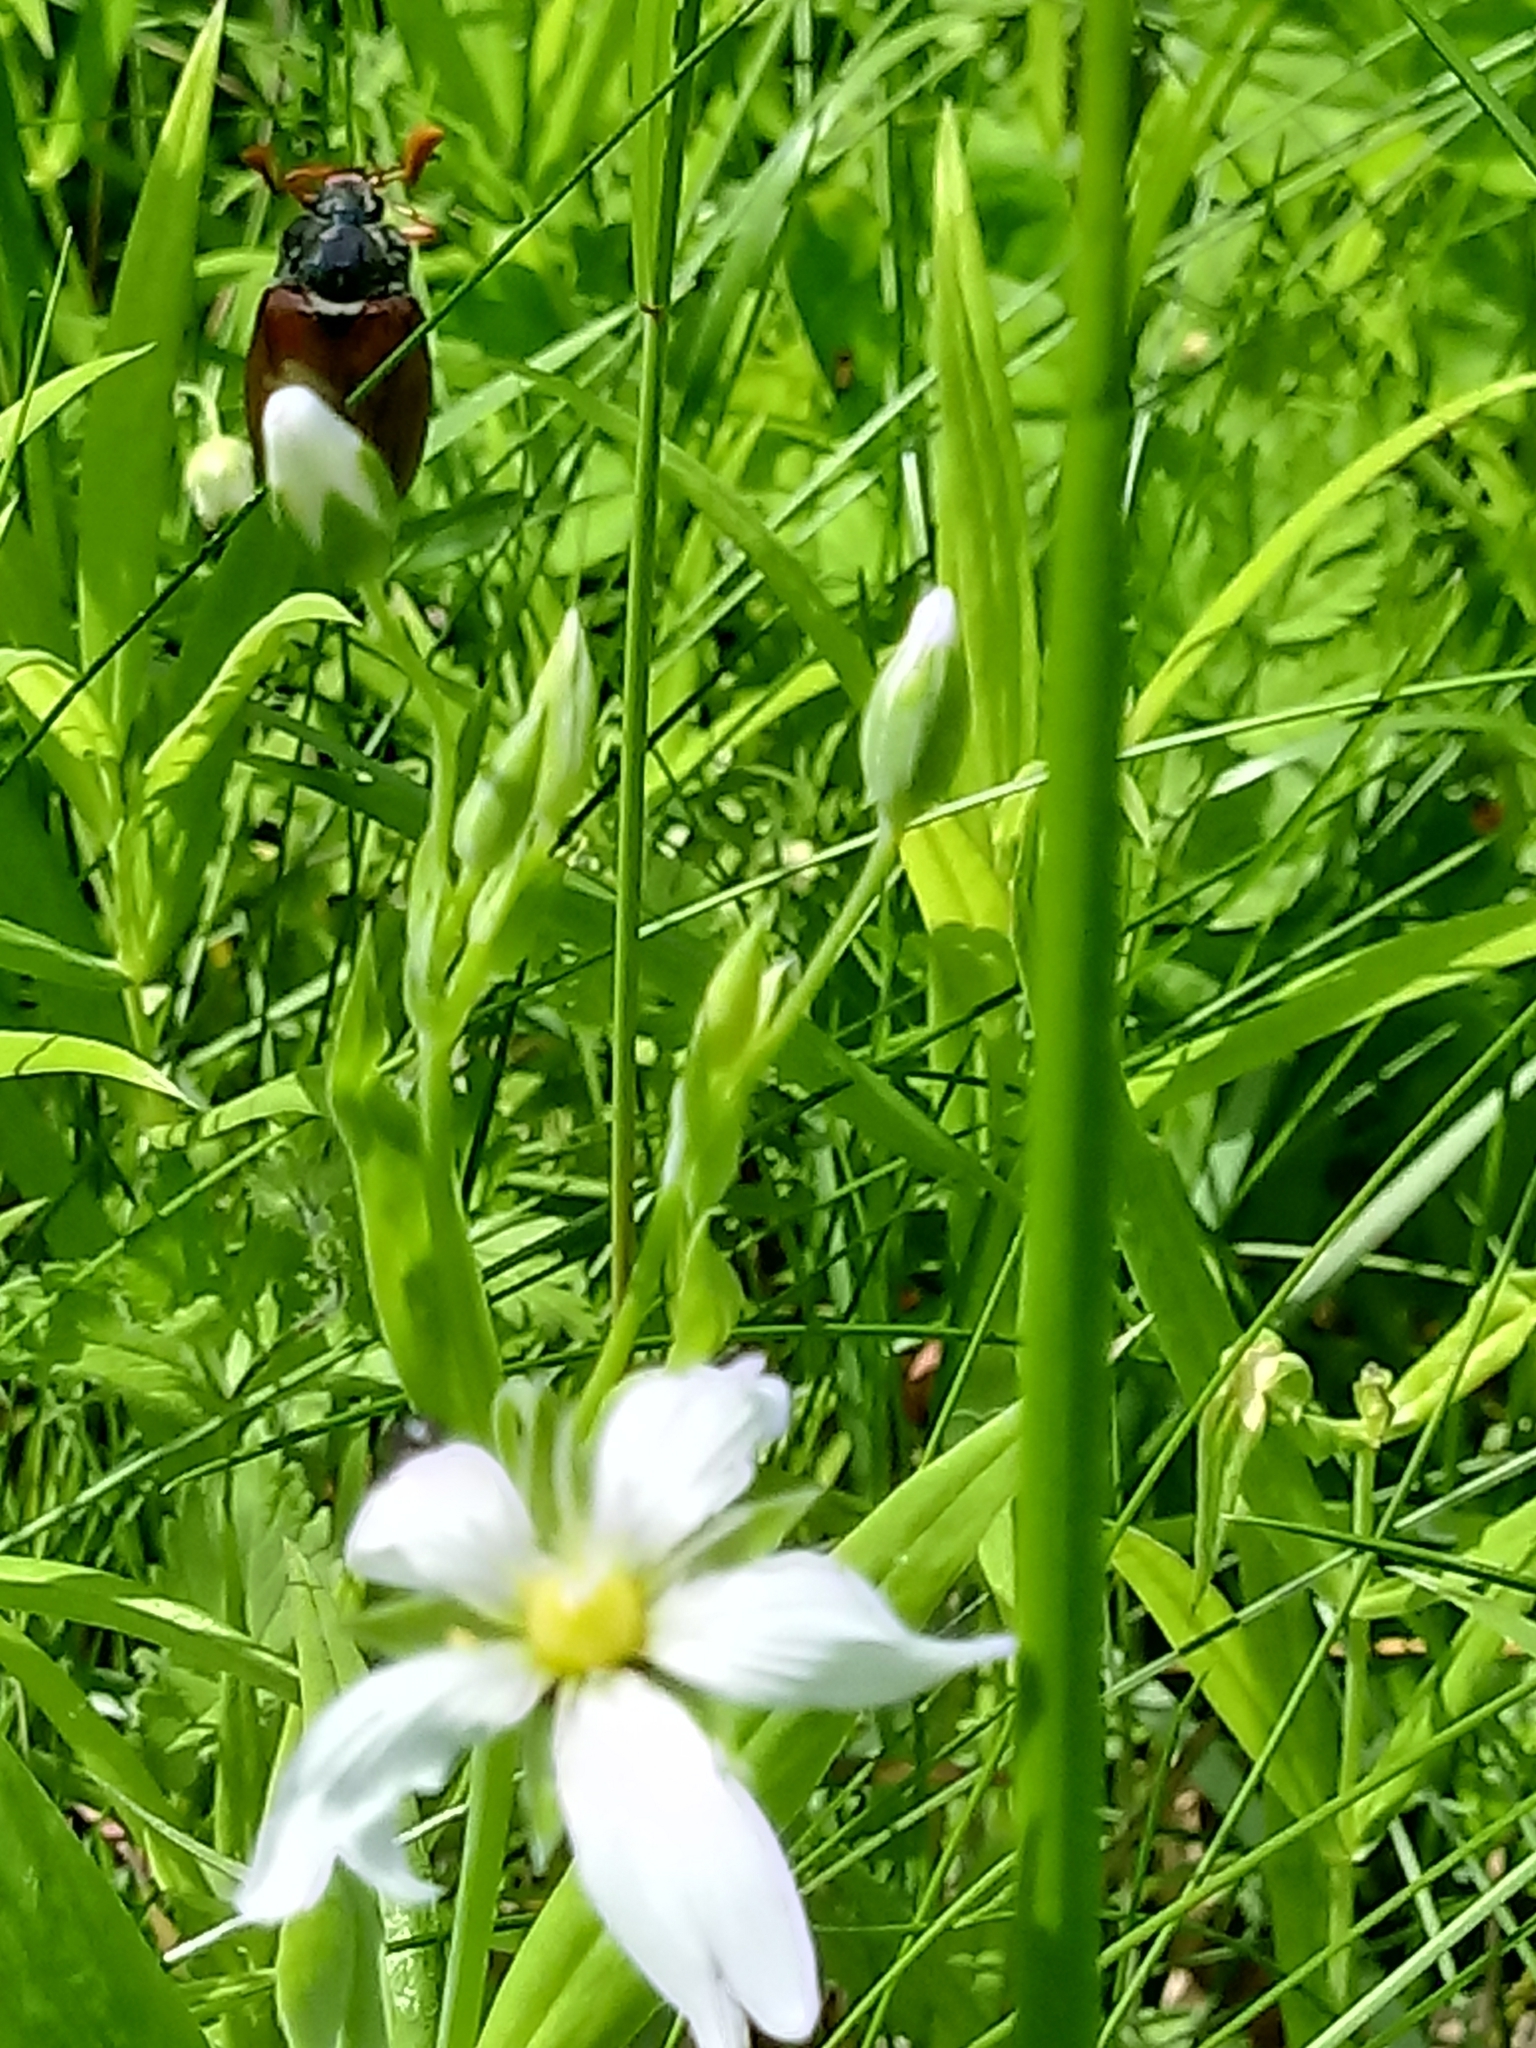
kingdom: Plantae
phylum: Tracheophyta
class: Magnoliopsida
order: Caryophyllales
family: Caryophyllaceae
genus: Rabelera
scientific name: Rabelera holostea
